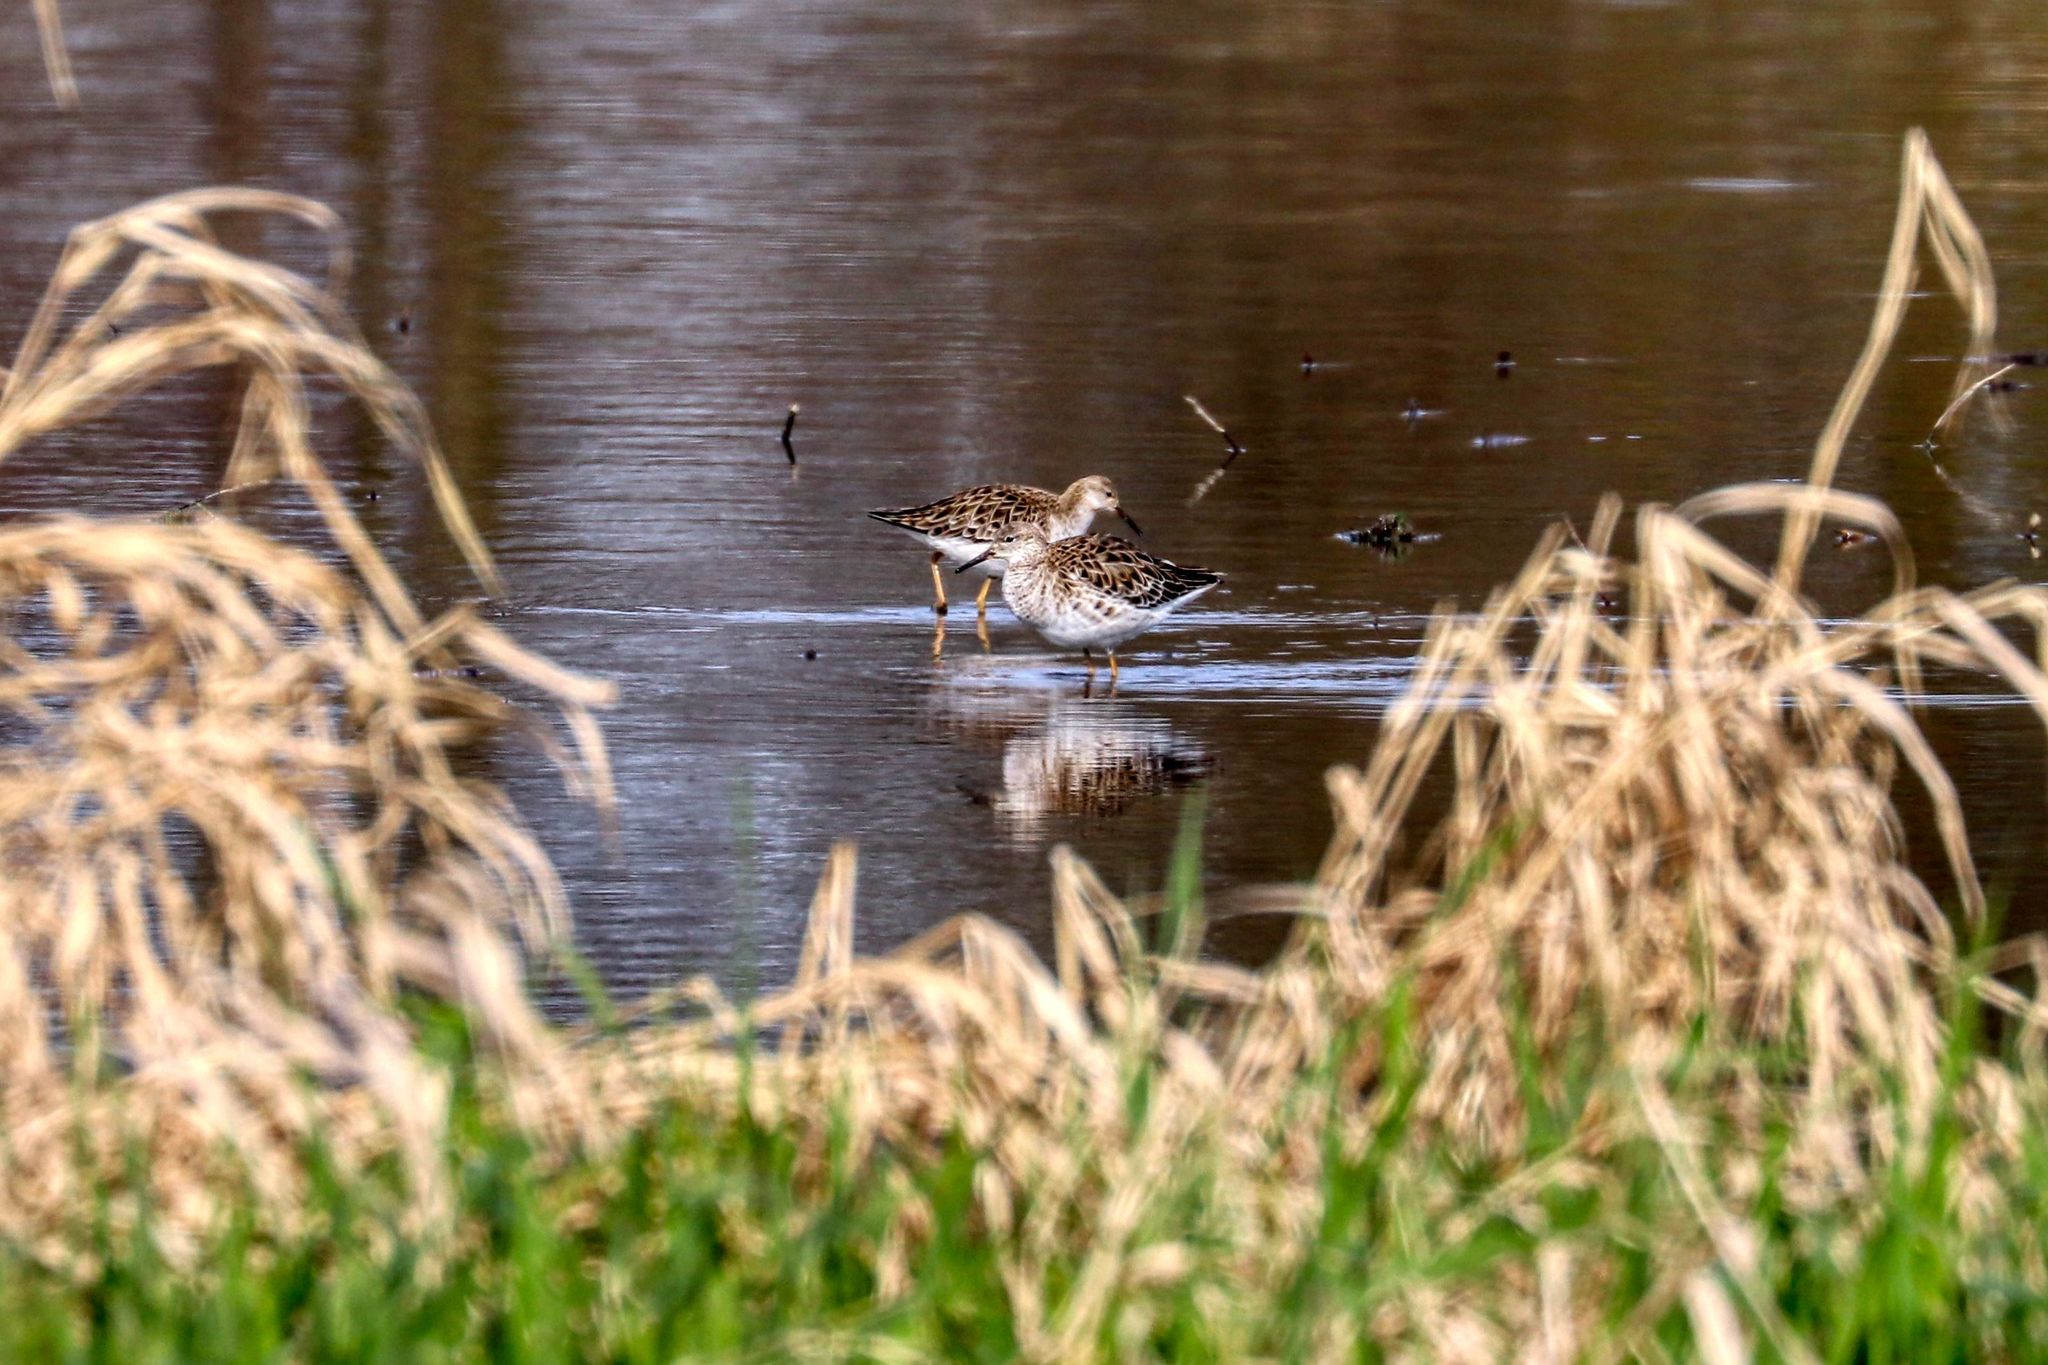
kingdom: Animalia
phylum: Chordata
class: Aves
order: Charadriiformes
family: Scolopacidae
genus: Calidris
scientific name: Calidris pugnax
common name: Ruff
